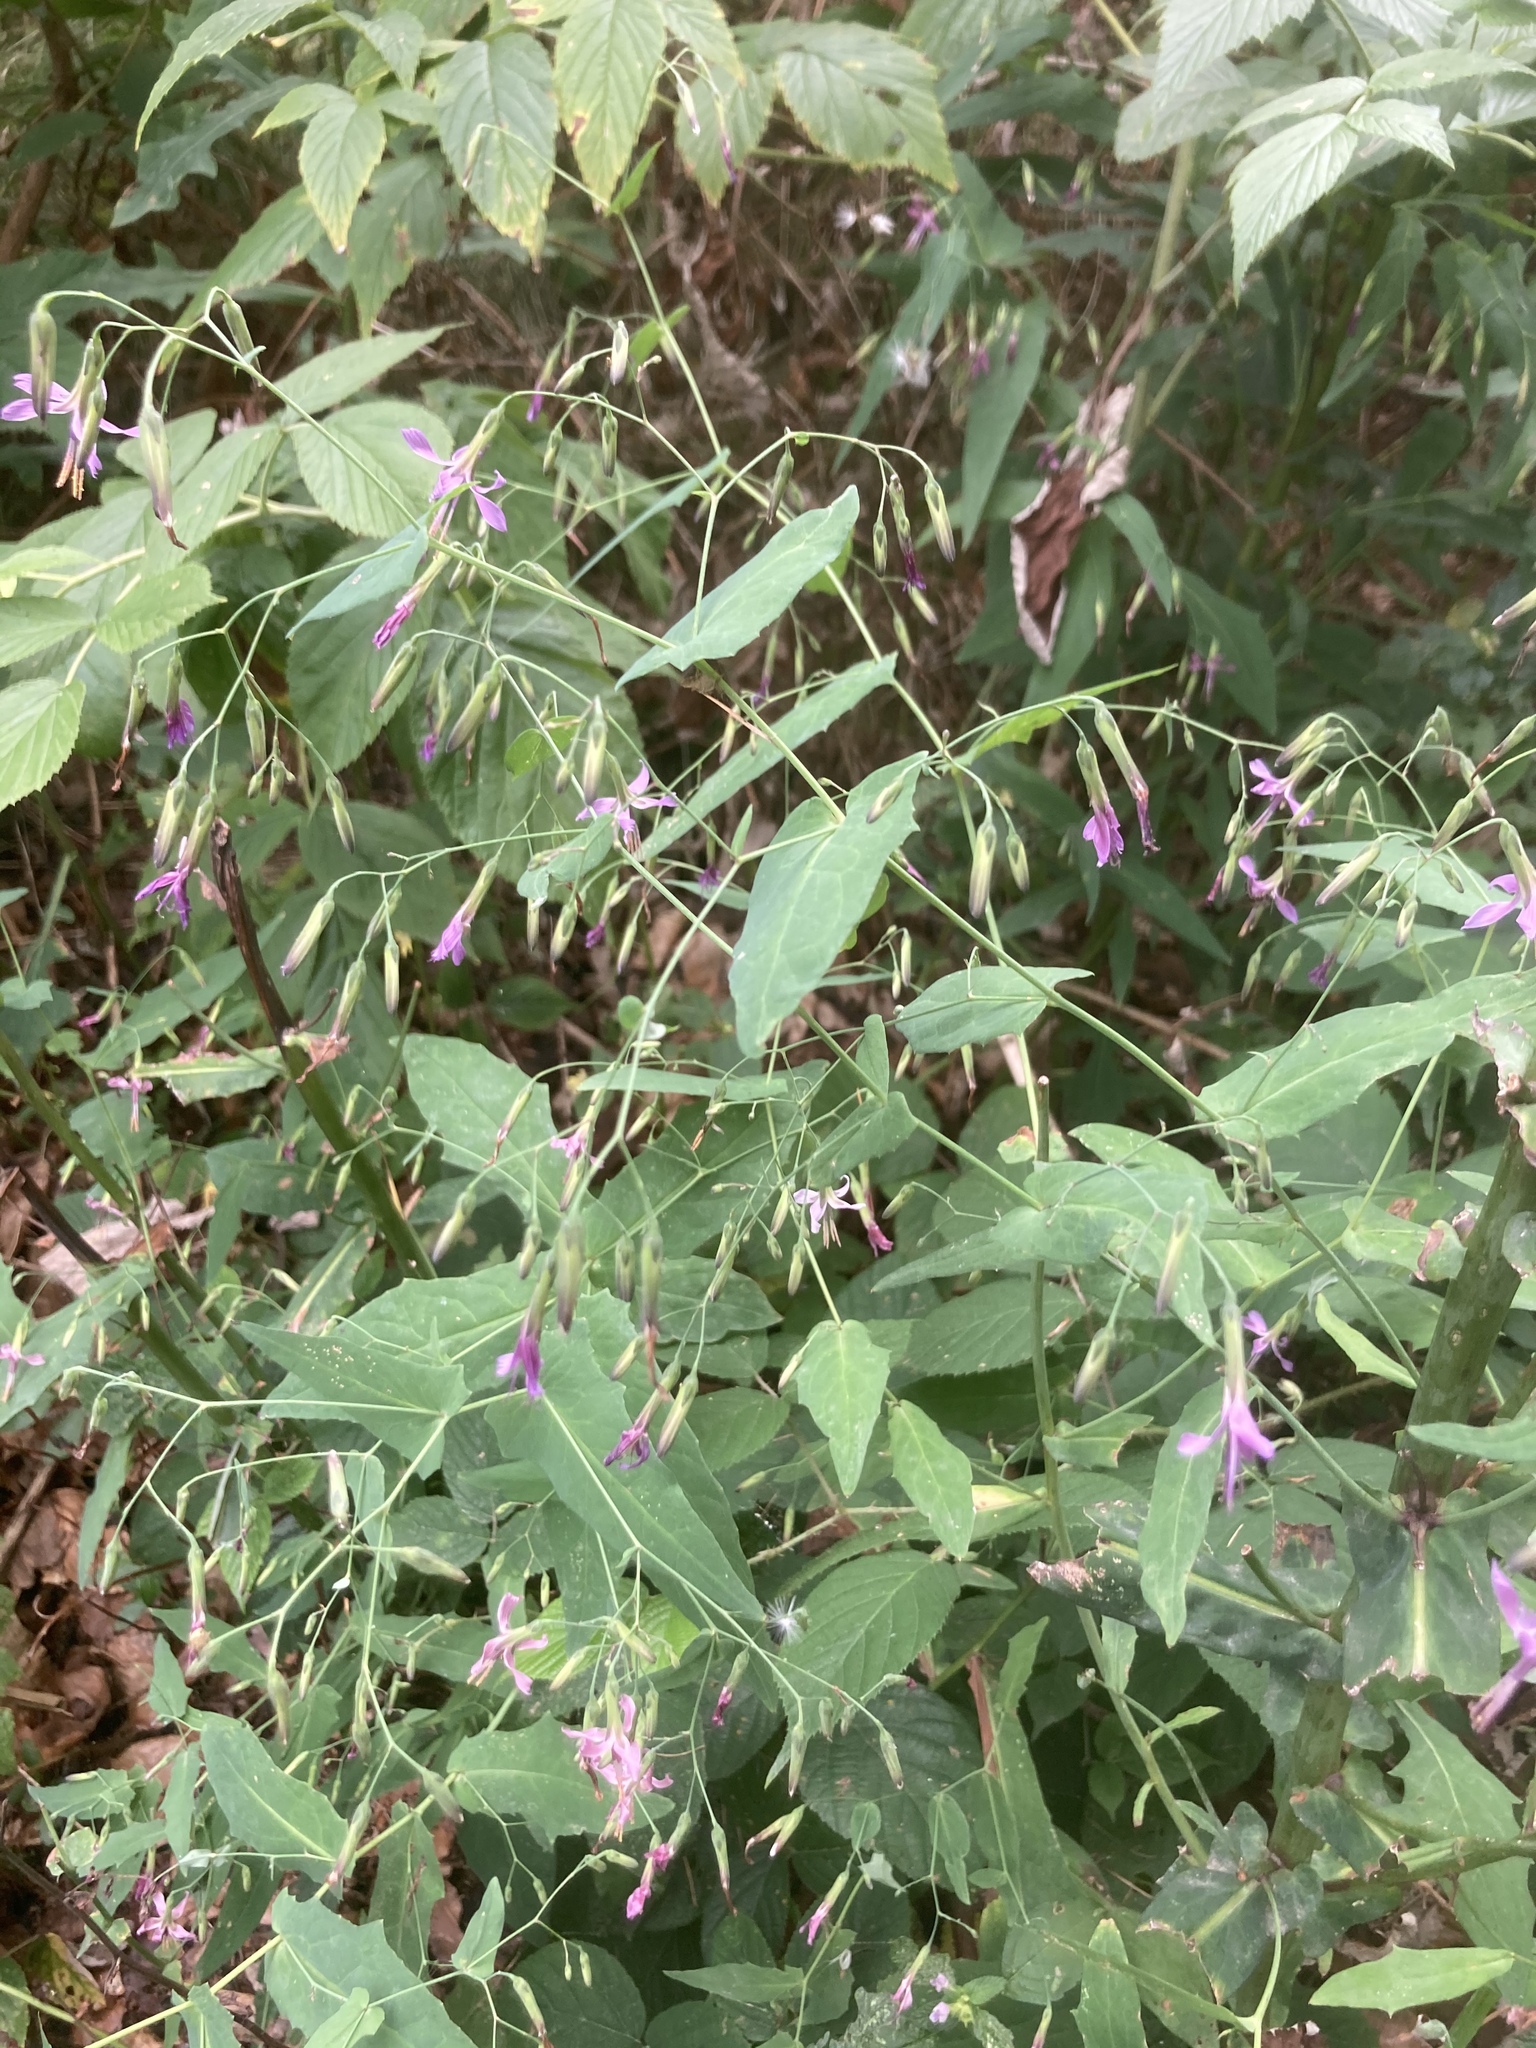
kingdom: Plantae
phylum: Tracheophyta
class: Magnoliopsida
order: Asterales
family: Asteraceae
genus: Prenanthes
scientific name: Prenanthes purpurea
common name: Purple lettuce
